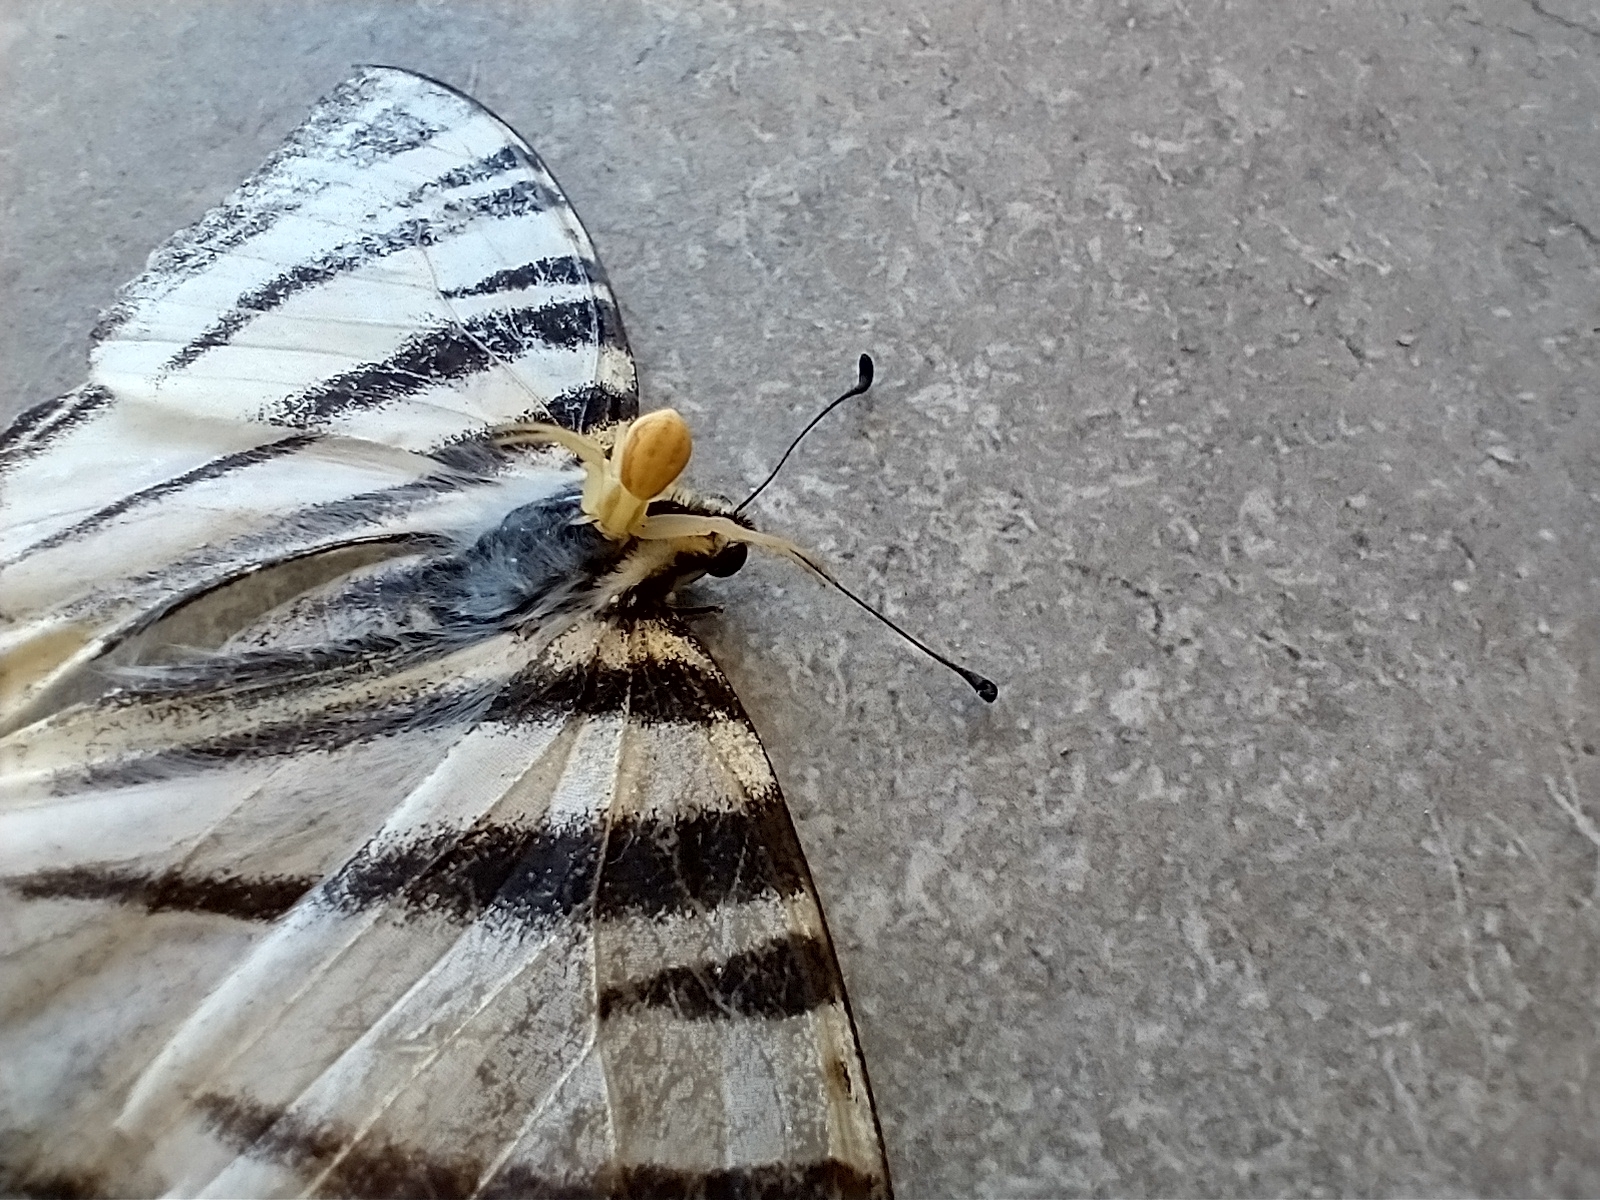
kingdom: Animalia
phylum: Arthropoda
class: Insecta
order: Lepidoptera
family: Papilionidae
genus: Iphiclides
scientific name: Iphiclides podalirius
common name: Scarce swallowtail
